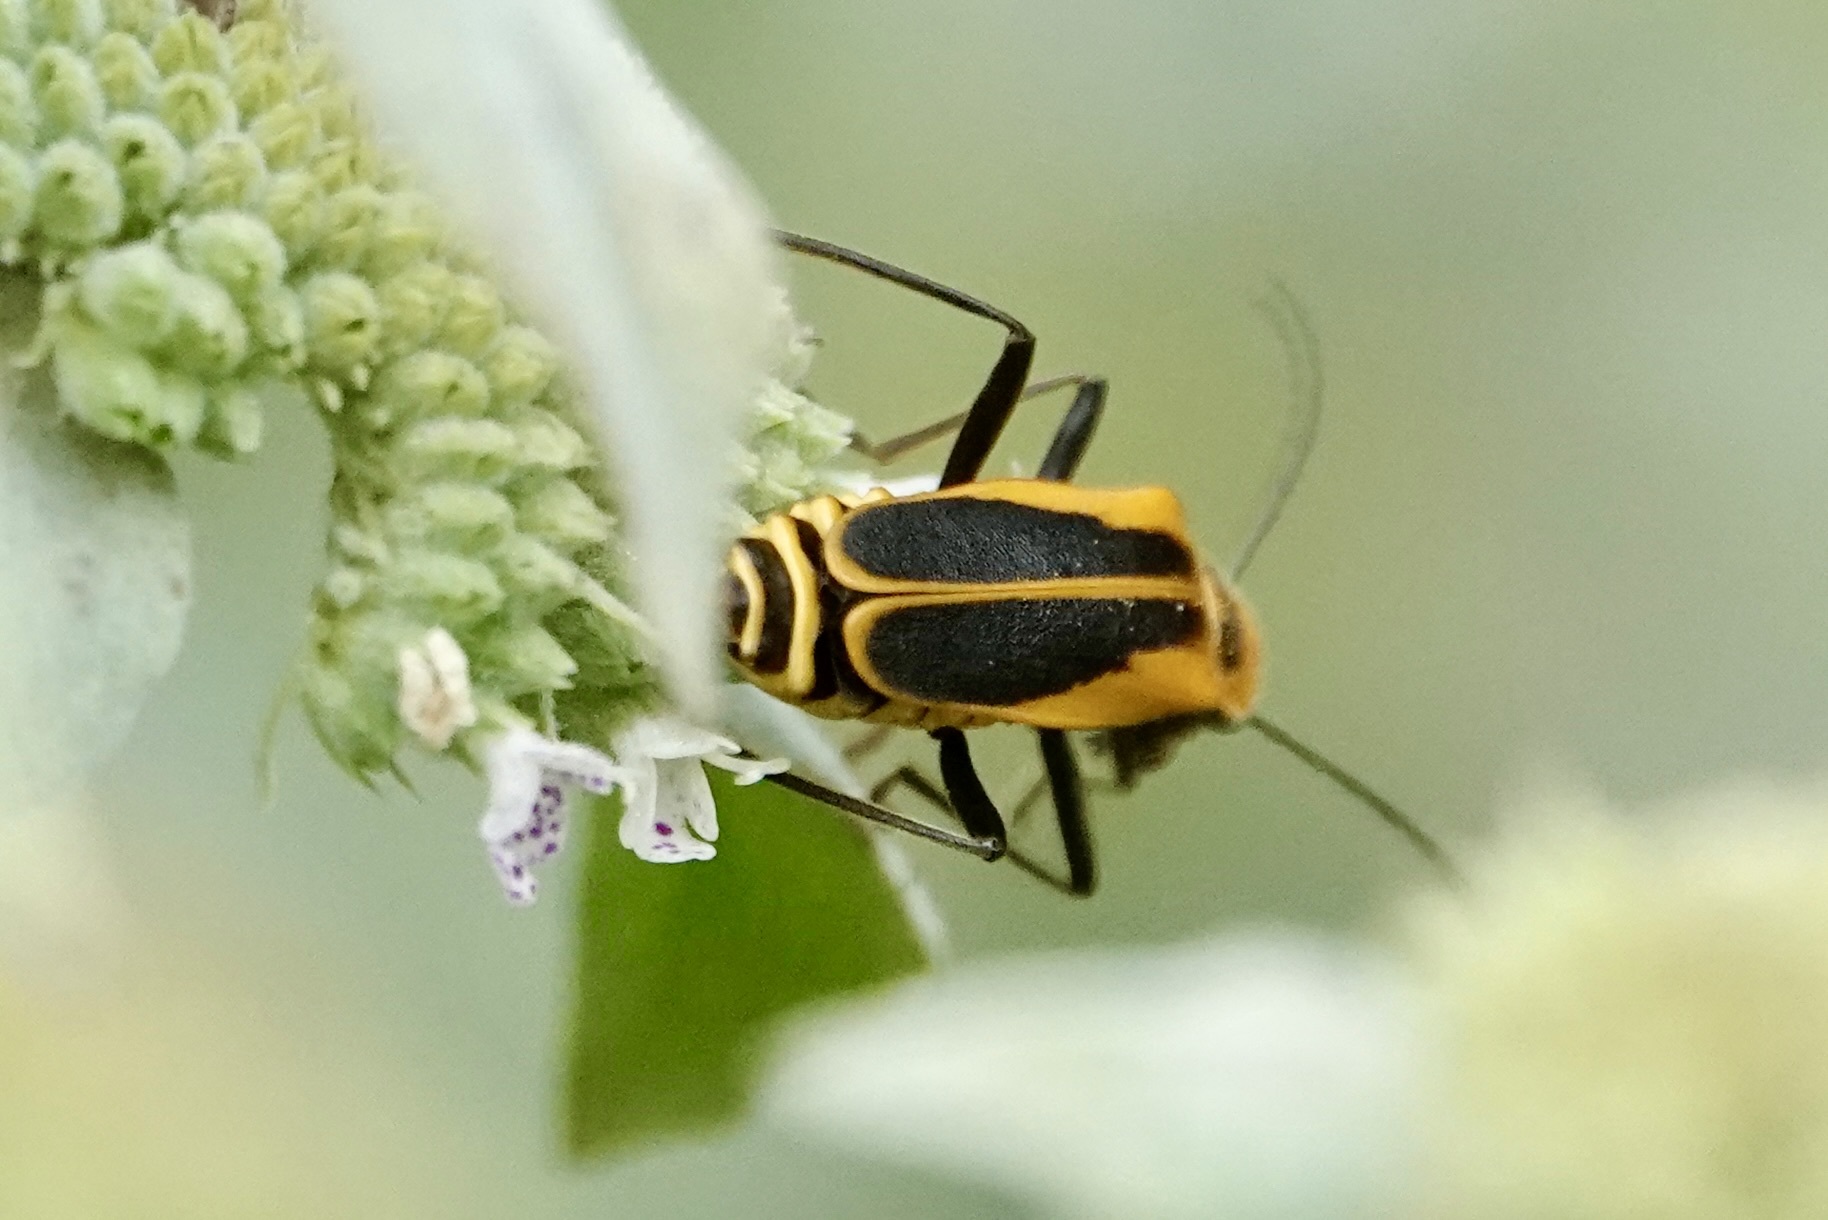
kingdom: Animalia
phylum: Arthropoda
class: Insecta
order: Coleoptera
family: Cantharidae
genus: Chauliognathus
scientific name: Chauliognathus pensylvanicus
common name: Goldenrod soldier beetle
